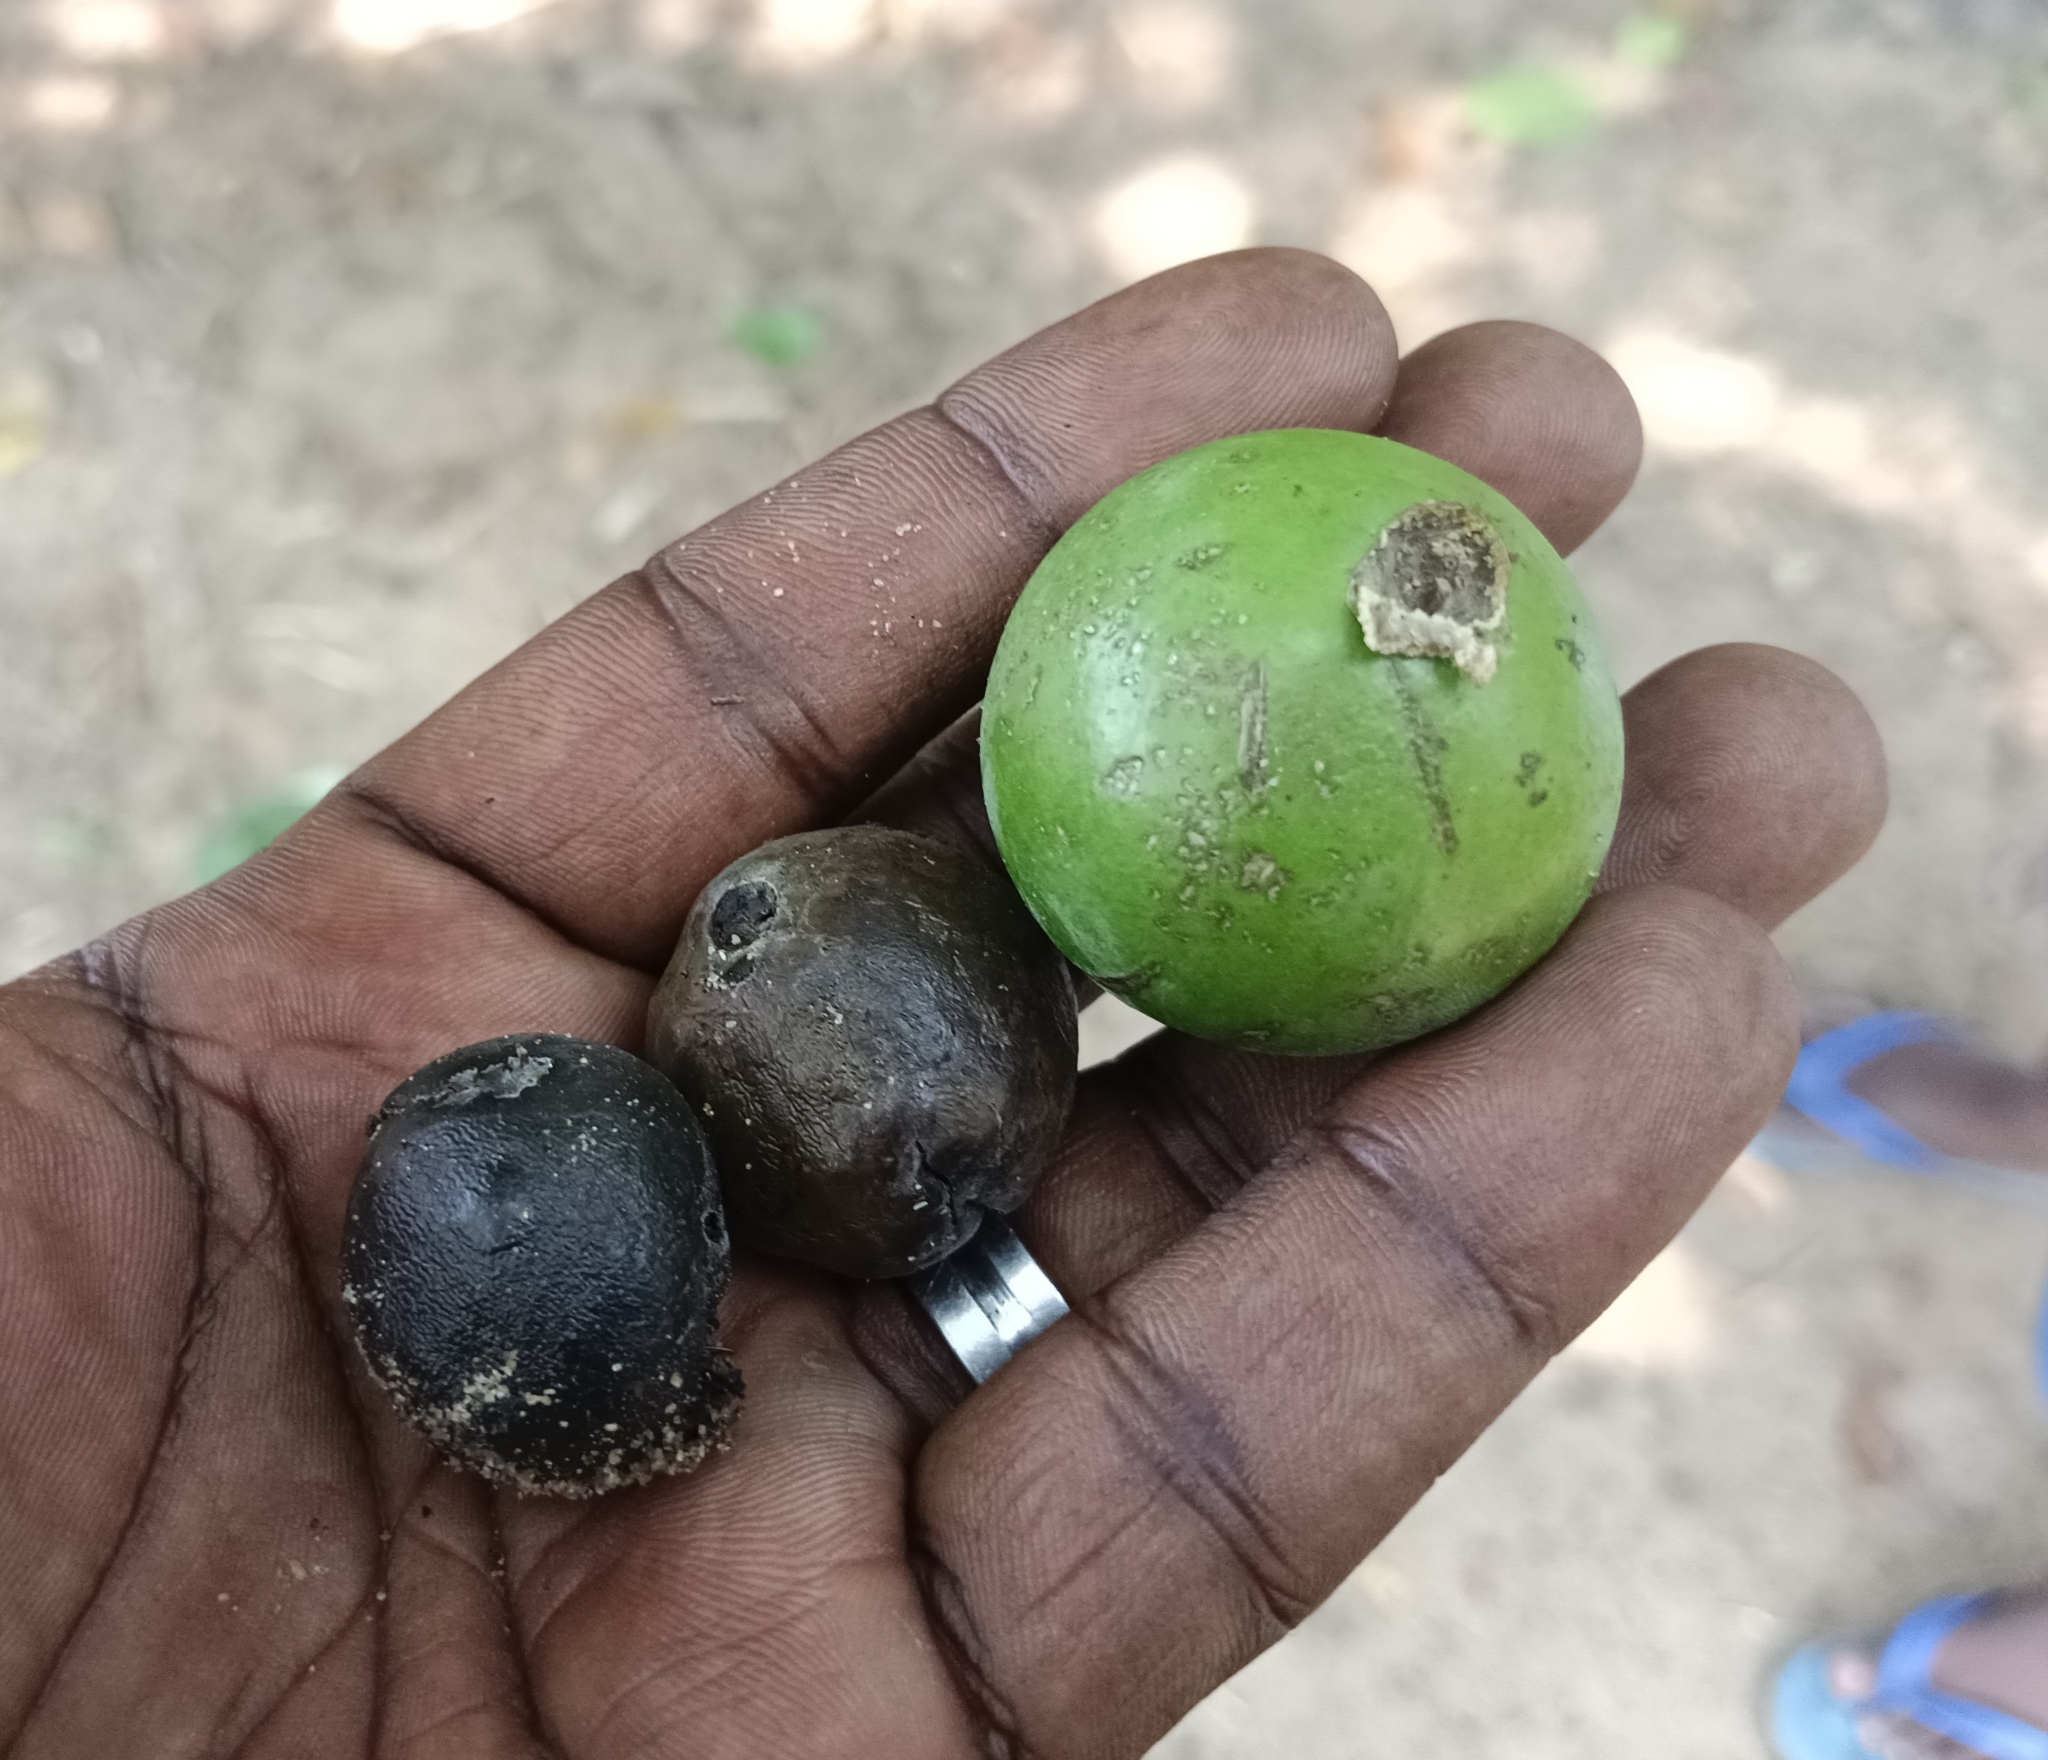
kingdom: Plantae
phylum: Tracheophyta
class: Magnoliopsida
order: Gentianales
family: Loganiaceae
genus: Strychnos
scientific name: Strychnos nux-vomica
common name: Strychninetree
